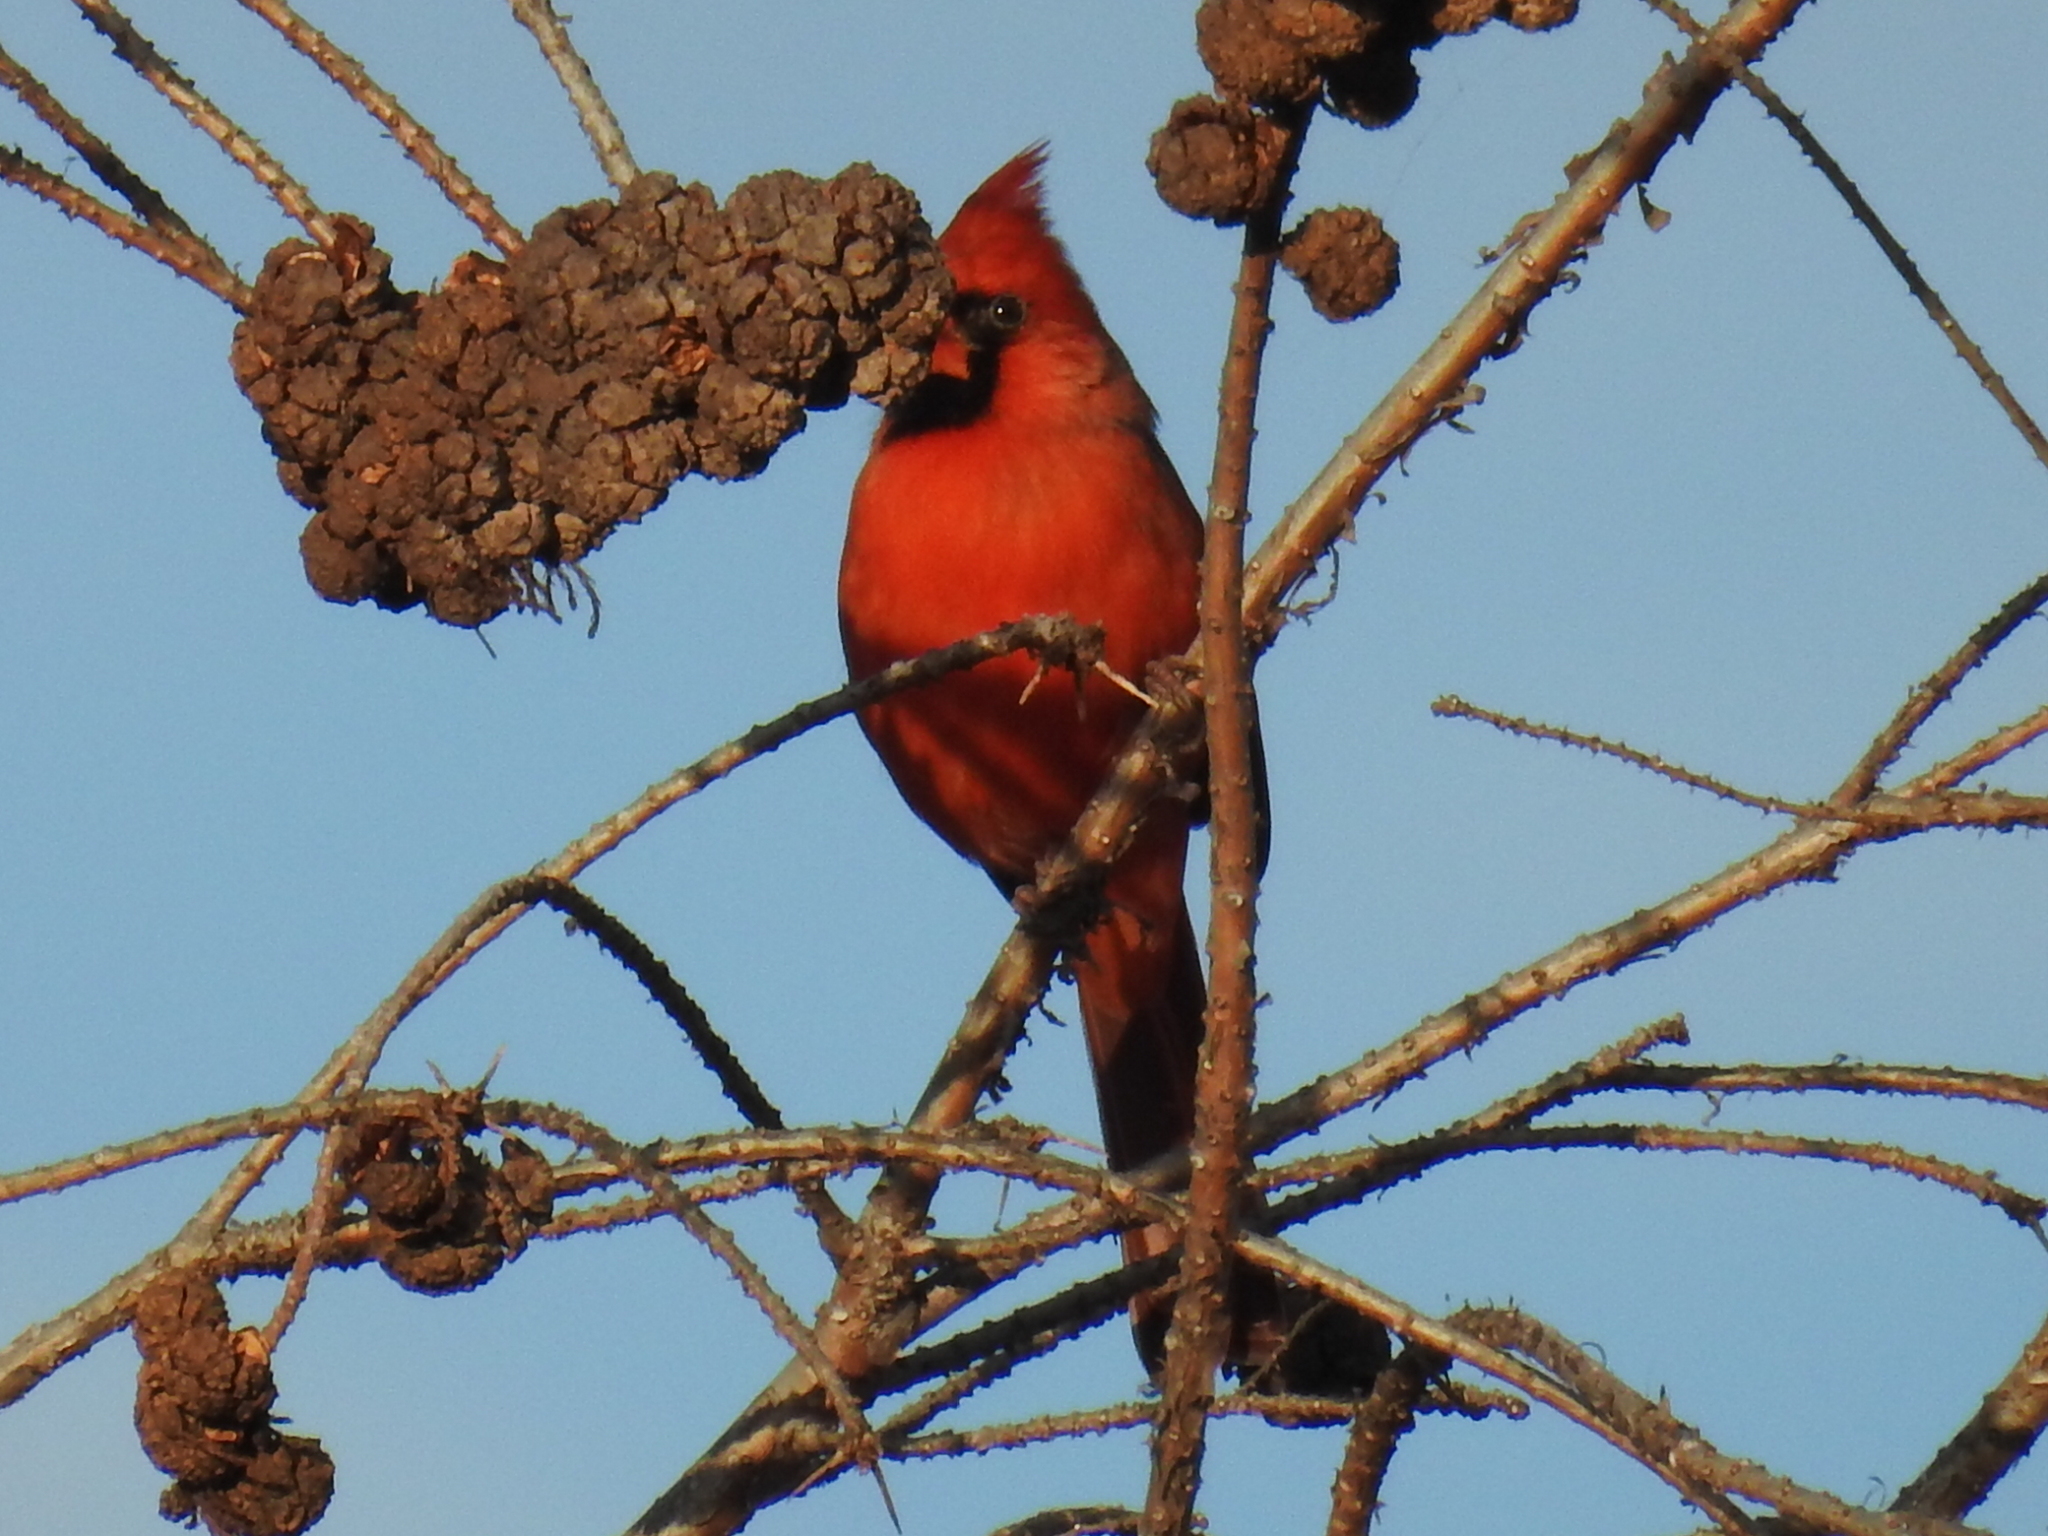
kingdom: Animalia
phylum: Chordata
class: Aves
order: Passeriformes
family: Cardinalidae
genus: Cardinalis
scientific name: Cardinalis cardinalis
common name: Northern cardinal
